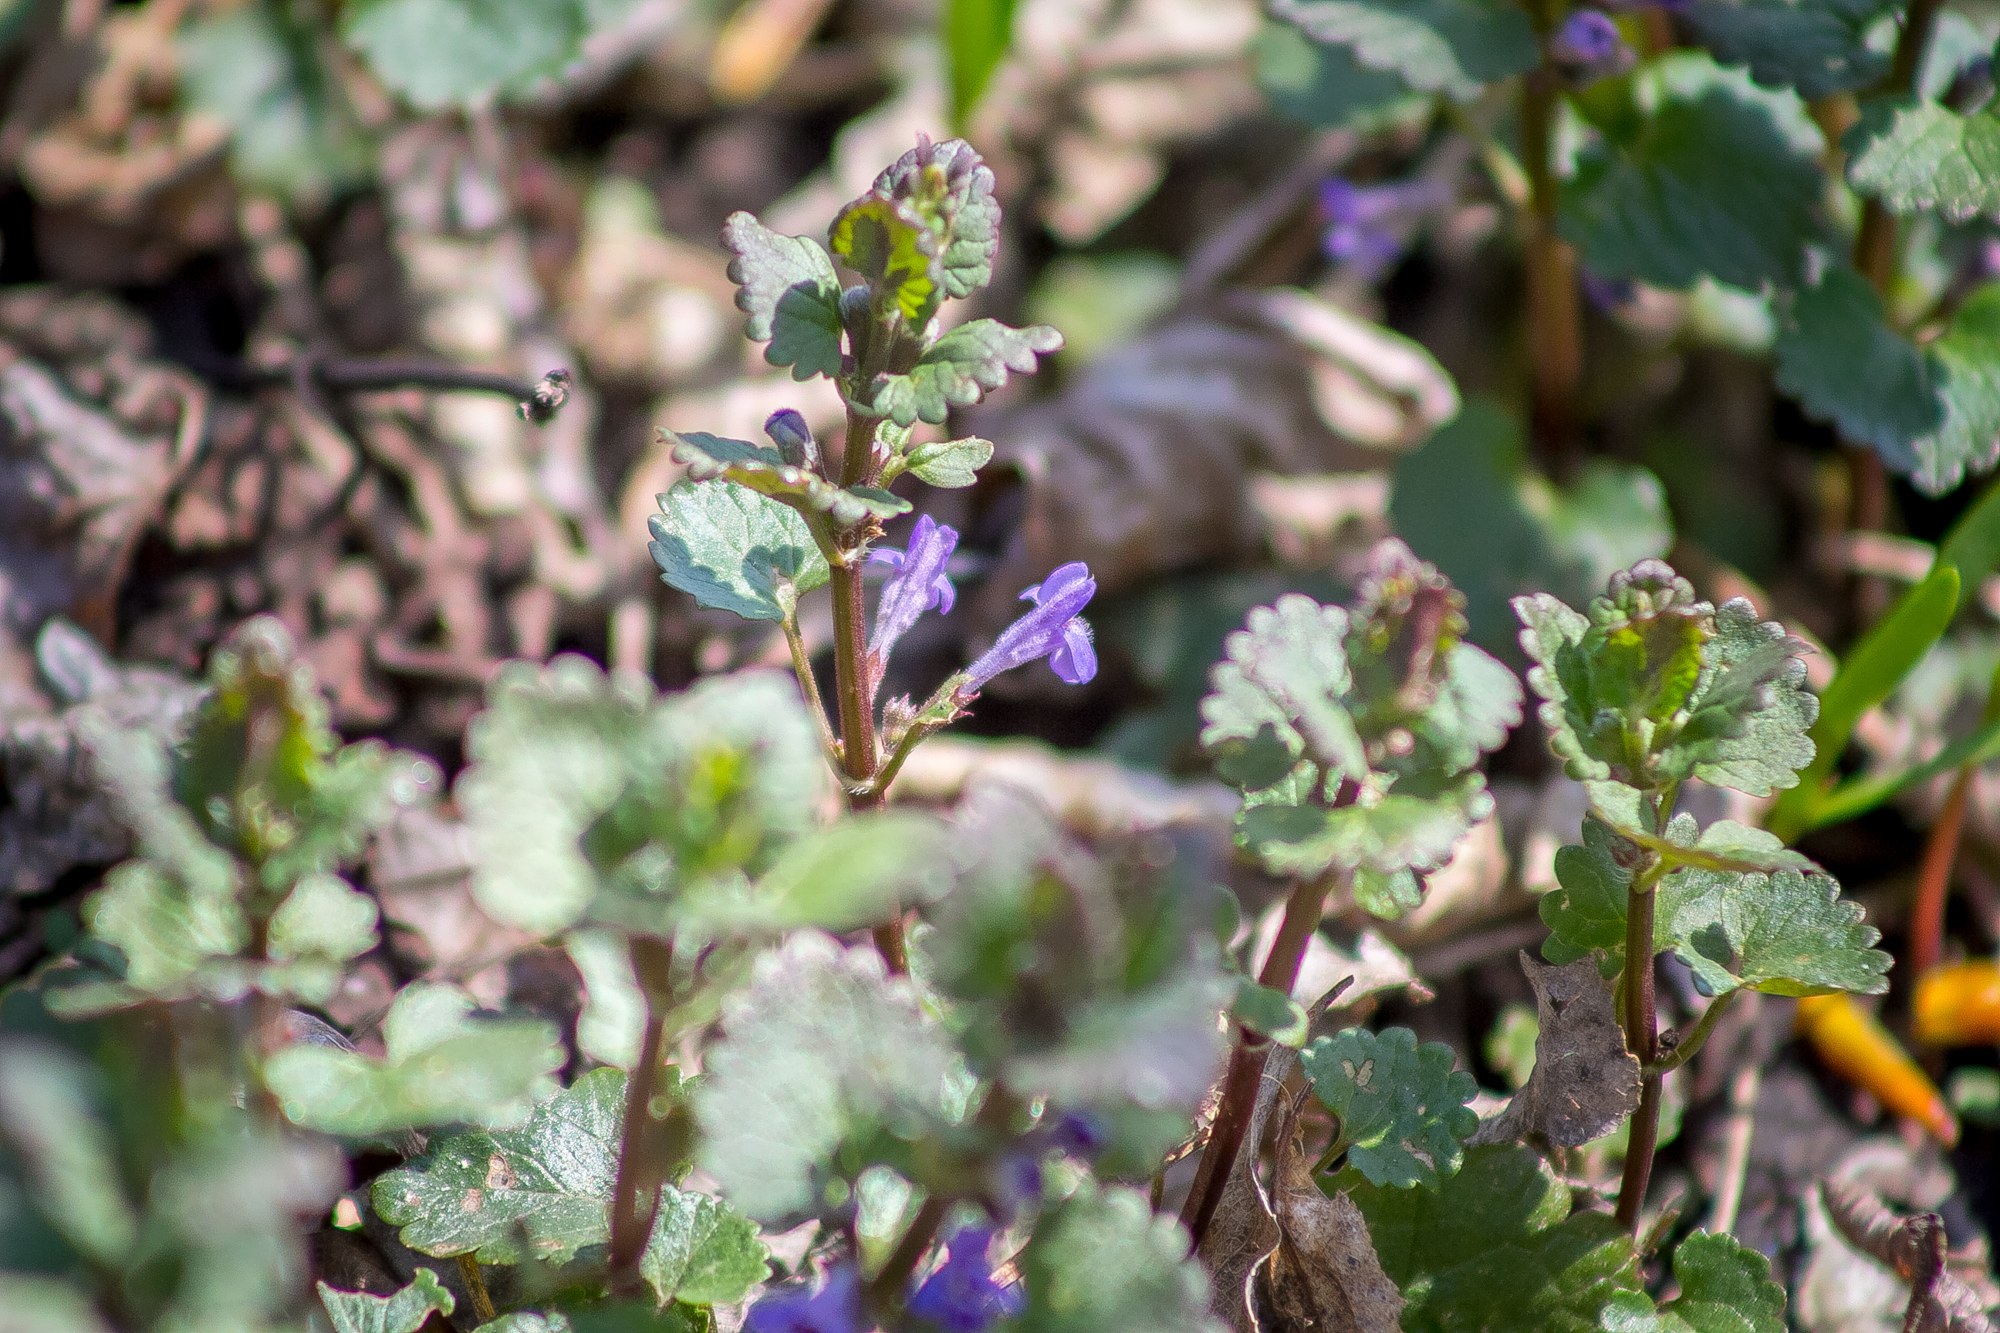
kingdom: Plantae
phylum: Tracheophyta
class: Magnoliopsida
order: Lamiales
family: Lamiaceae
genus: Glechoma
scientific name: Glechoma hederacea
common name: Ground ivy
